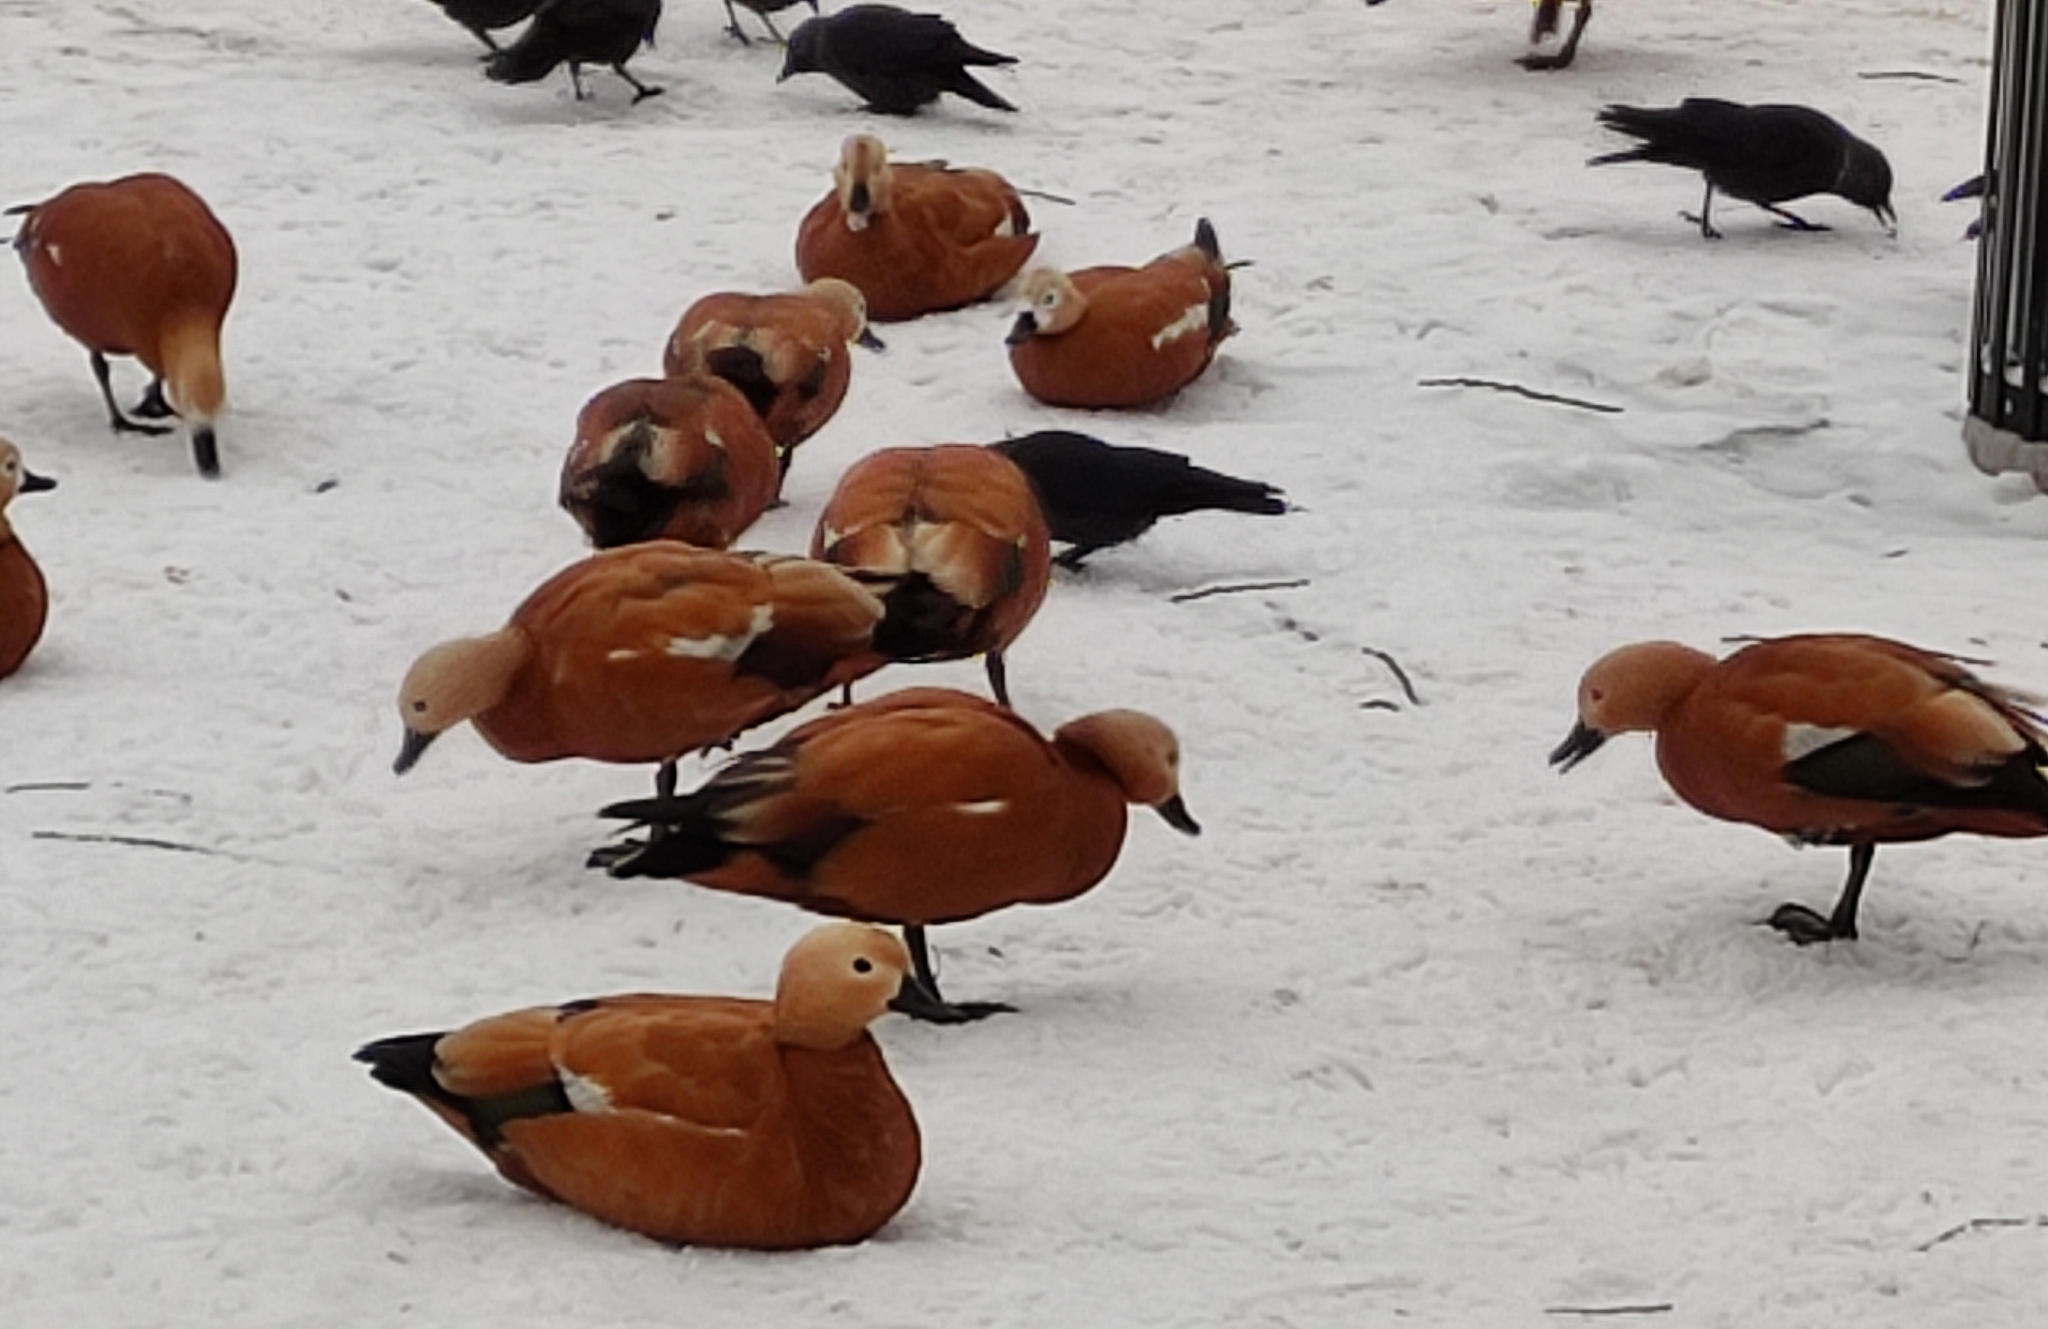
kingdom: Animalia
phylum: Chordata
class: Aves
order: Anseriformes
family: Anatidae
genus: Tadorna
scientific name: Tadorna ferruginea
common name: Ruddy shelduck
